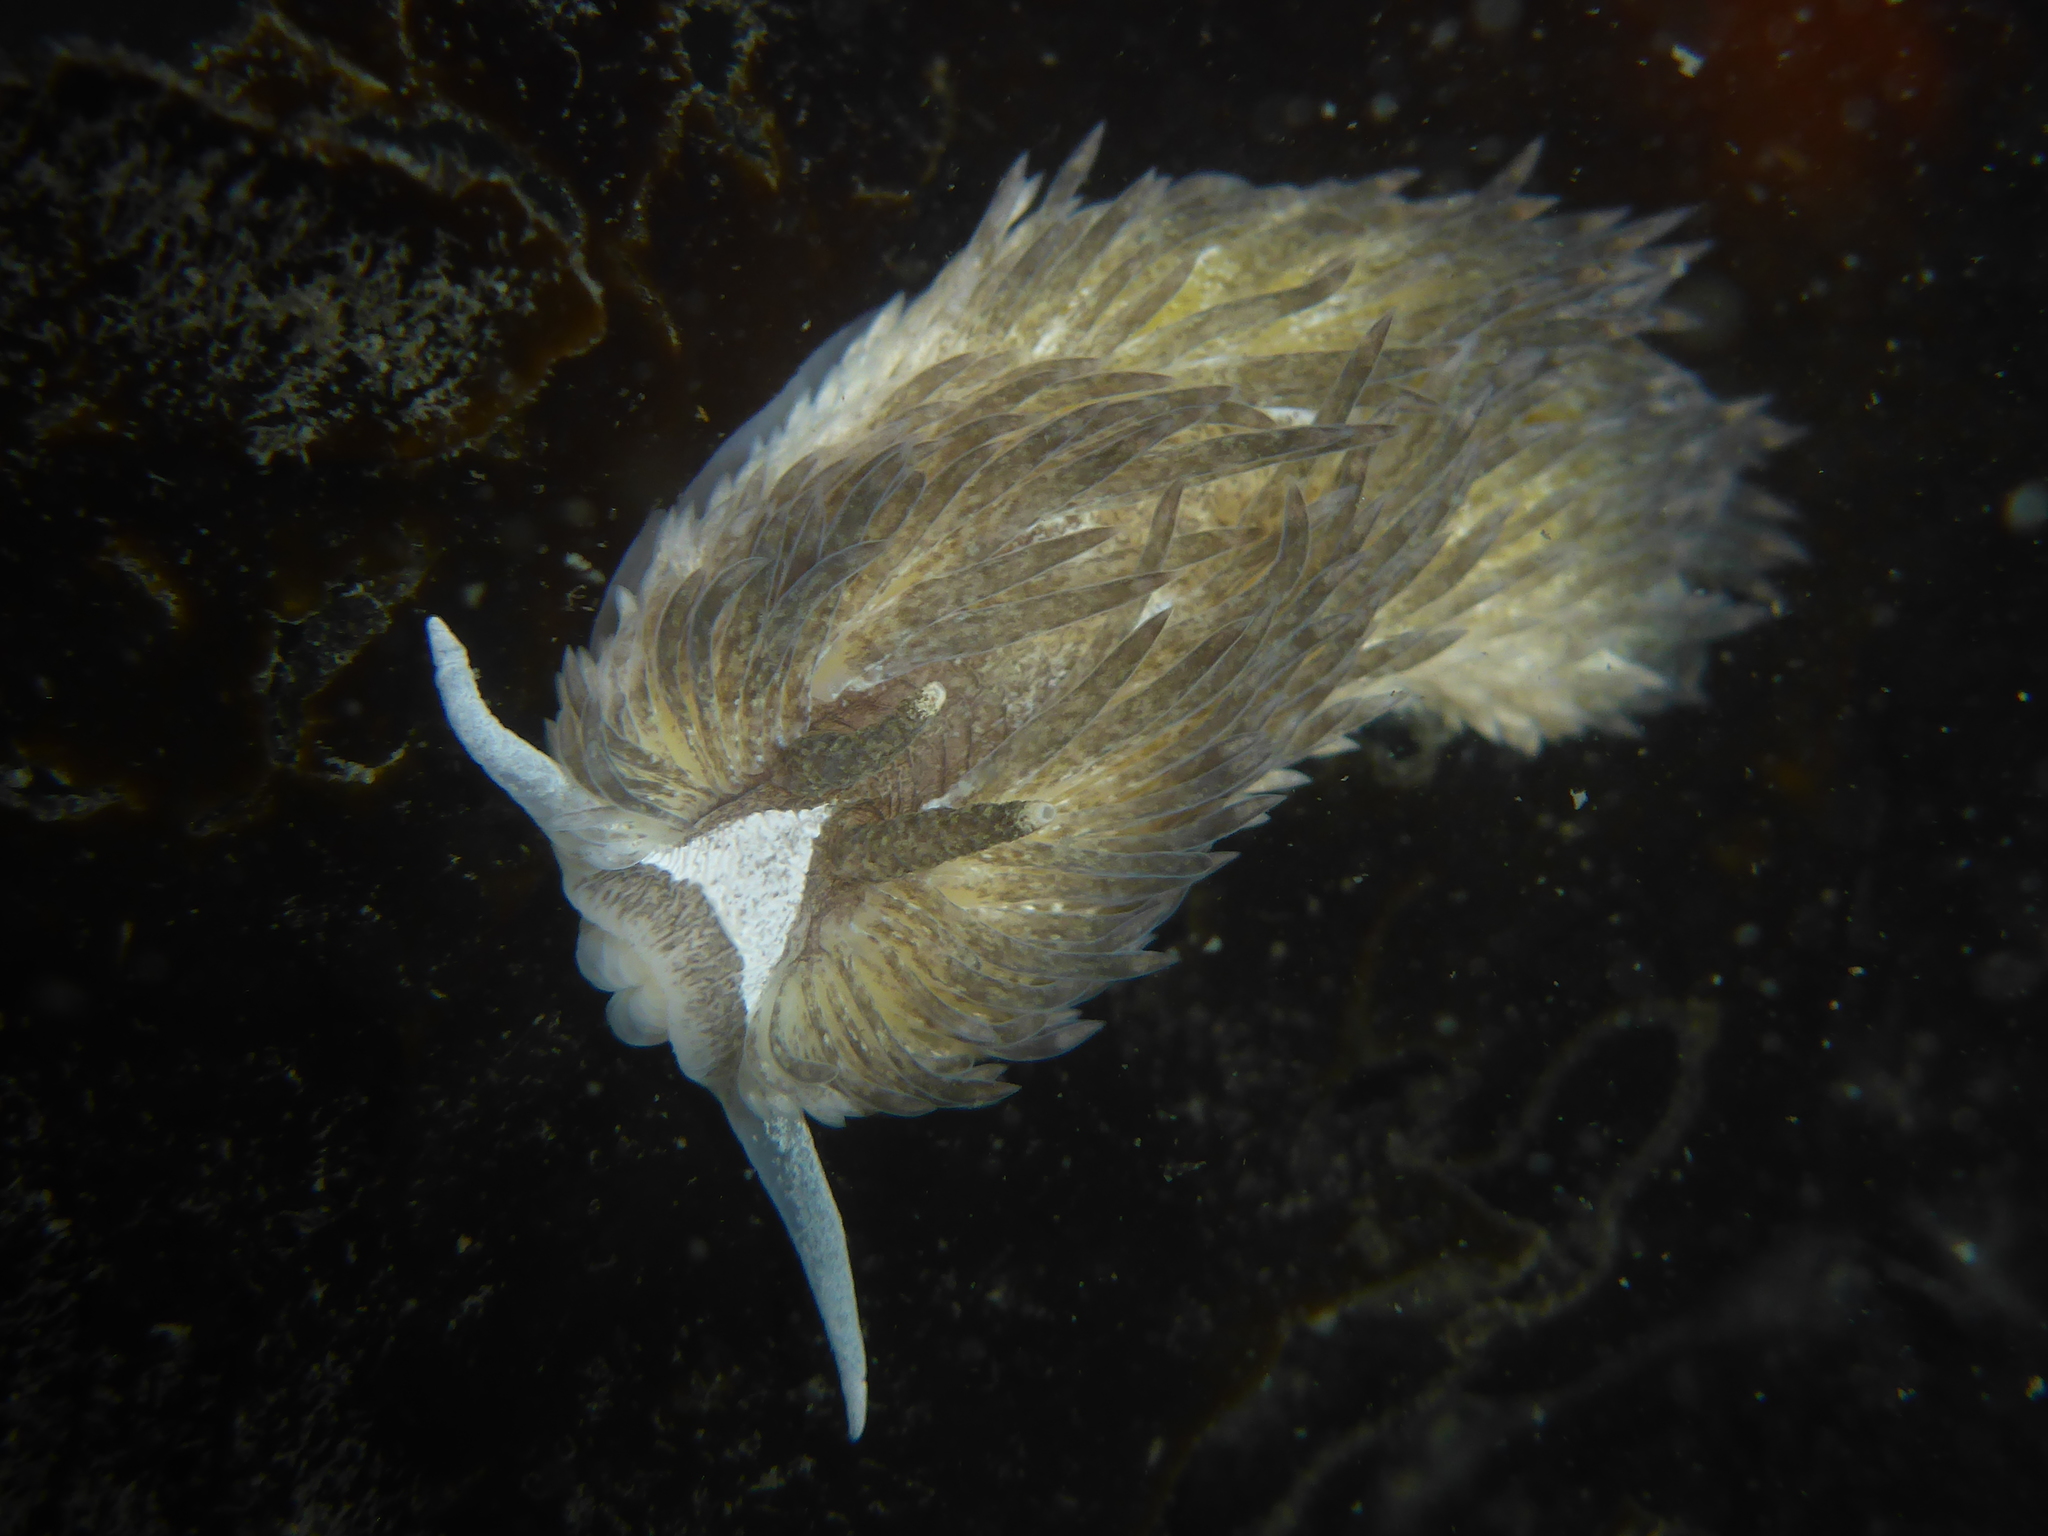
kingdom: Animalia
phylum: Mollusca
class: Gastropoda
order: Nudibranchia
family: Aeolidiidae
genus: Aeolidia
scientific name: Aeolidia loui
